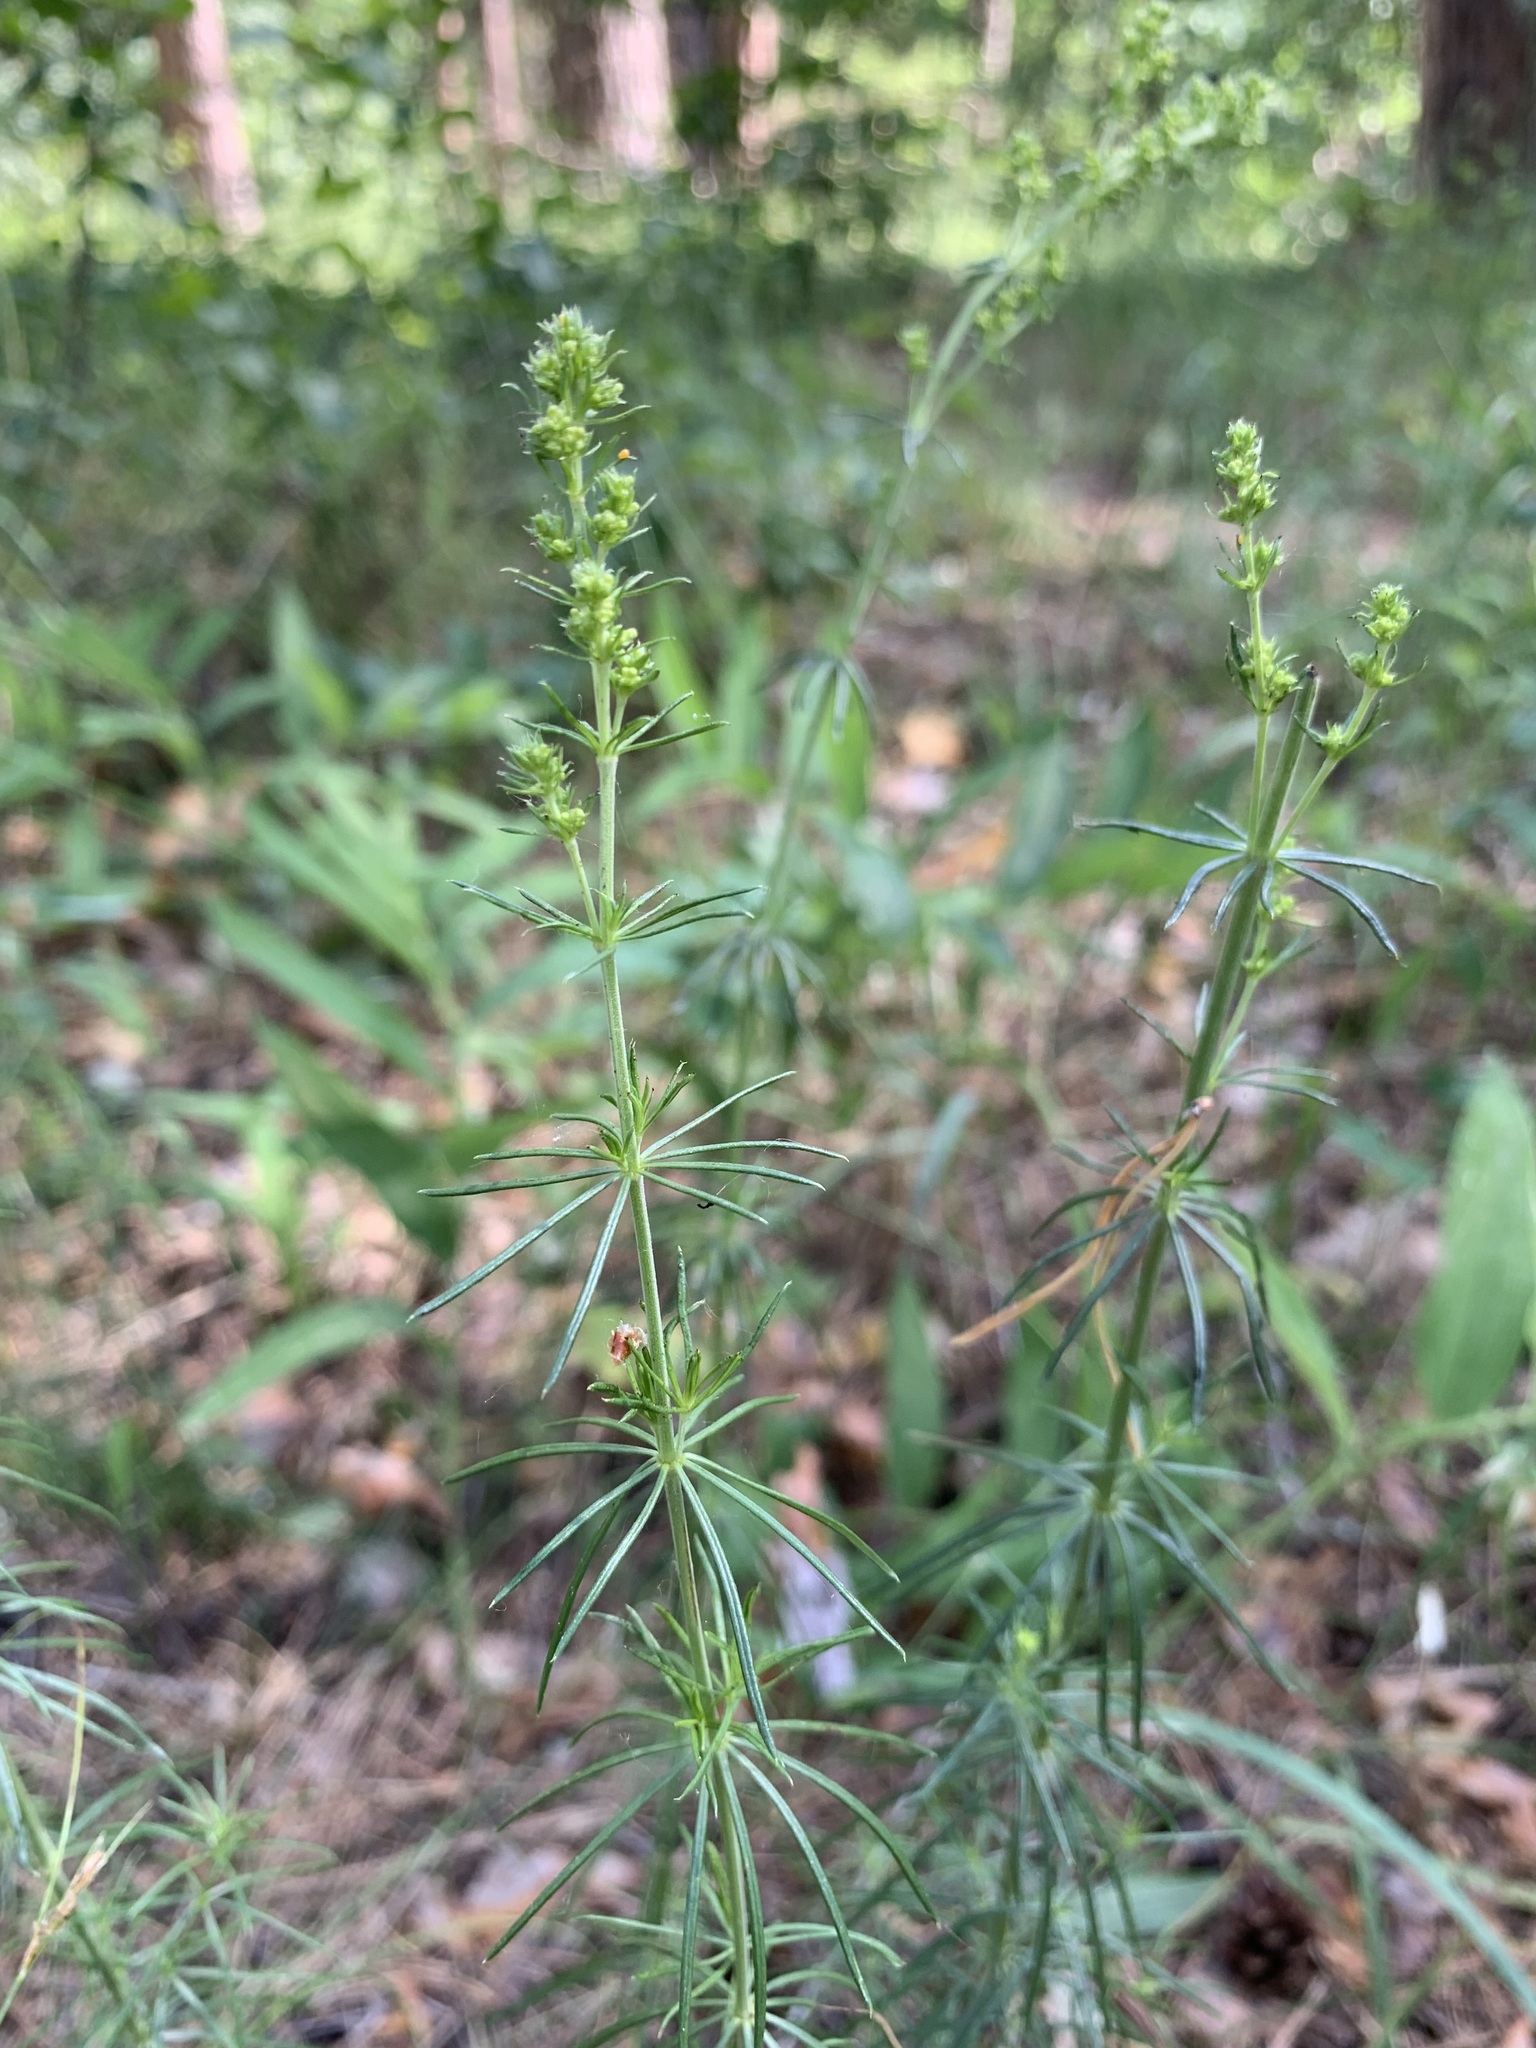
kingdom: Plantae
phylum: Tracheophyta
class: Magnoliopsida
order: Gentianales
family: Rubiaceae
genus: Galium
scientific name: Galium verum
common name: Lady's bedstraw
